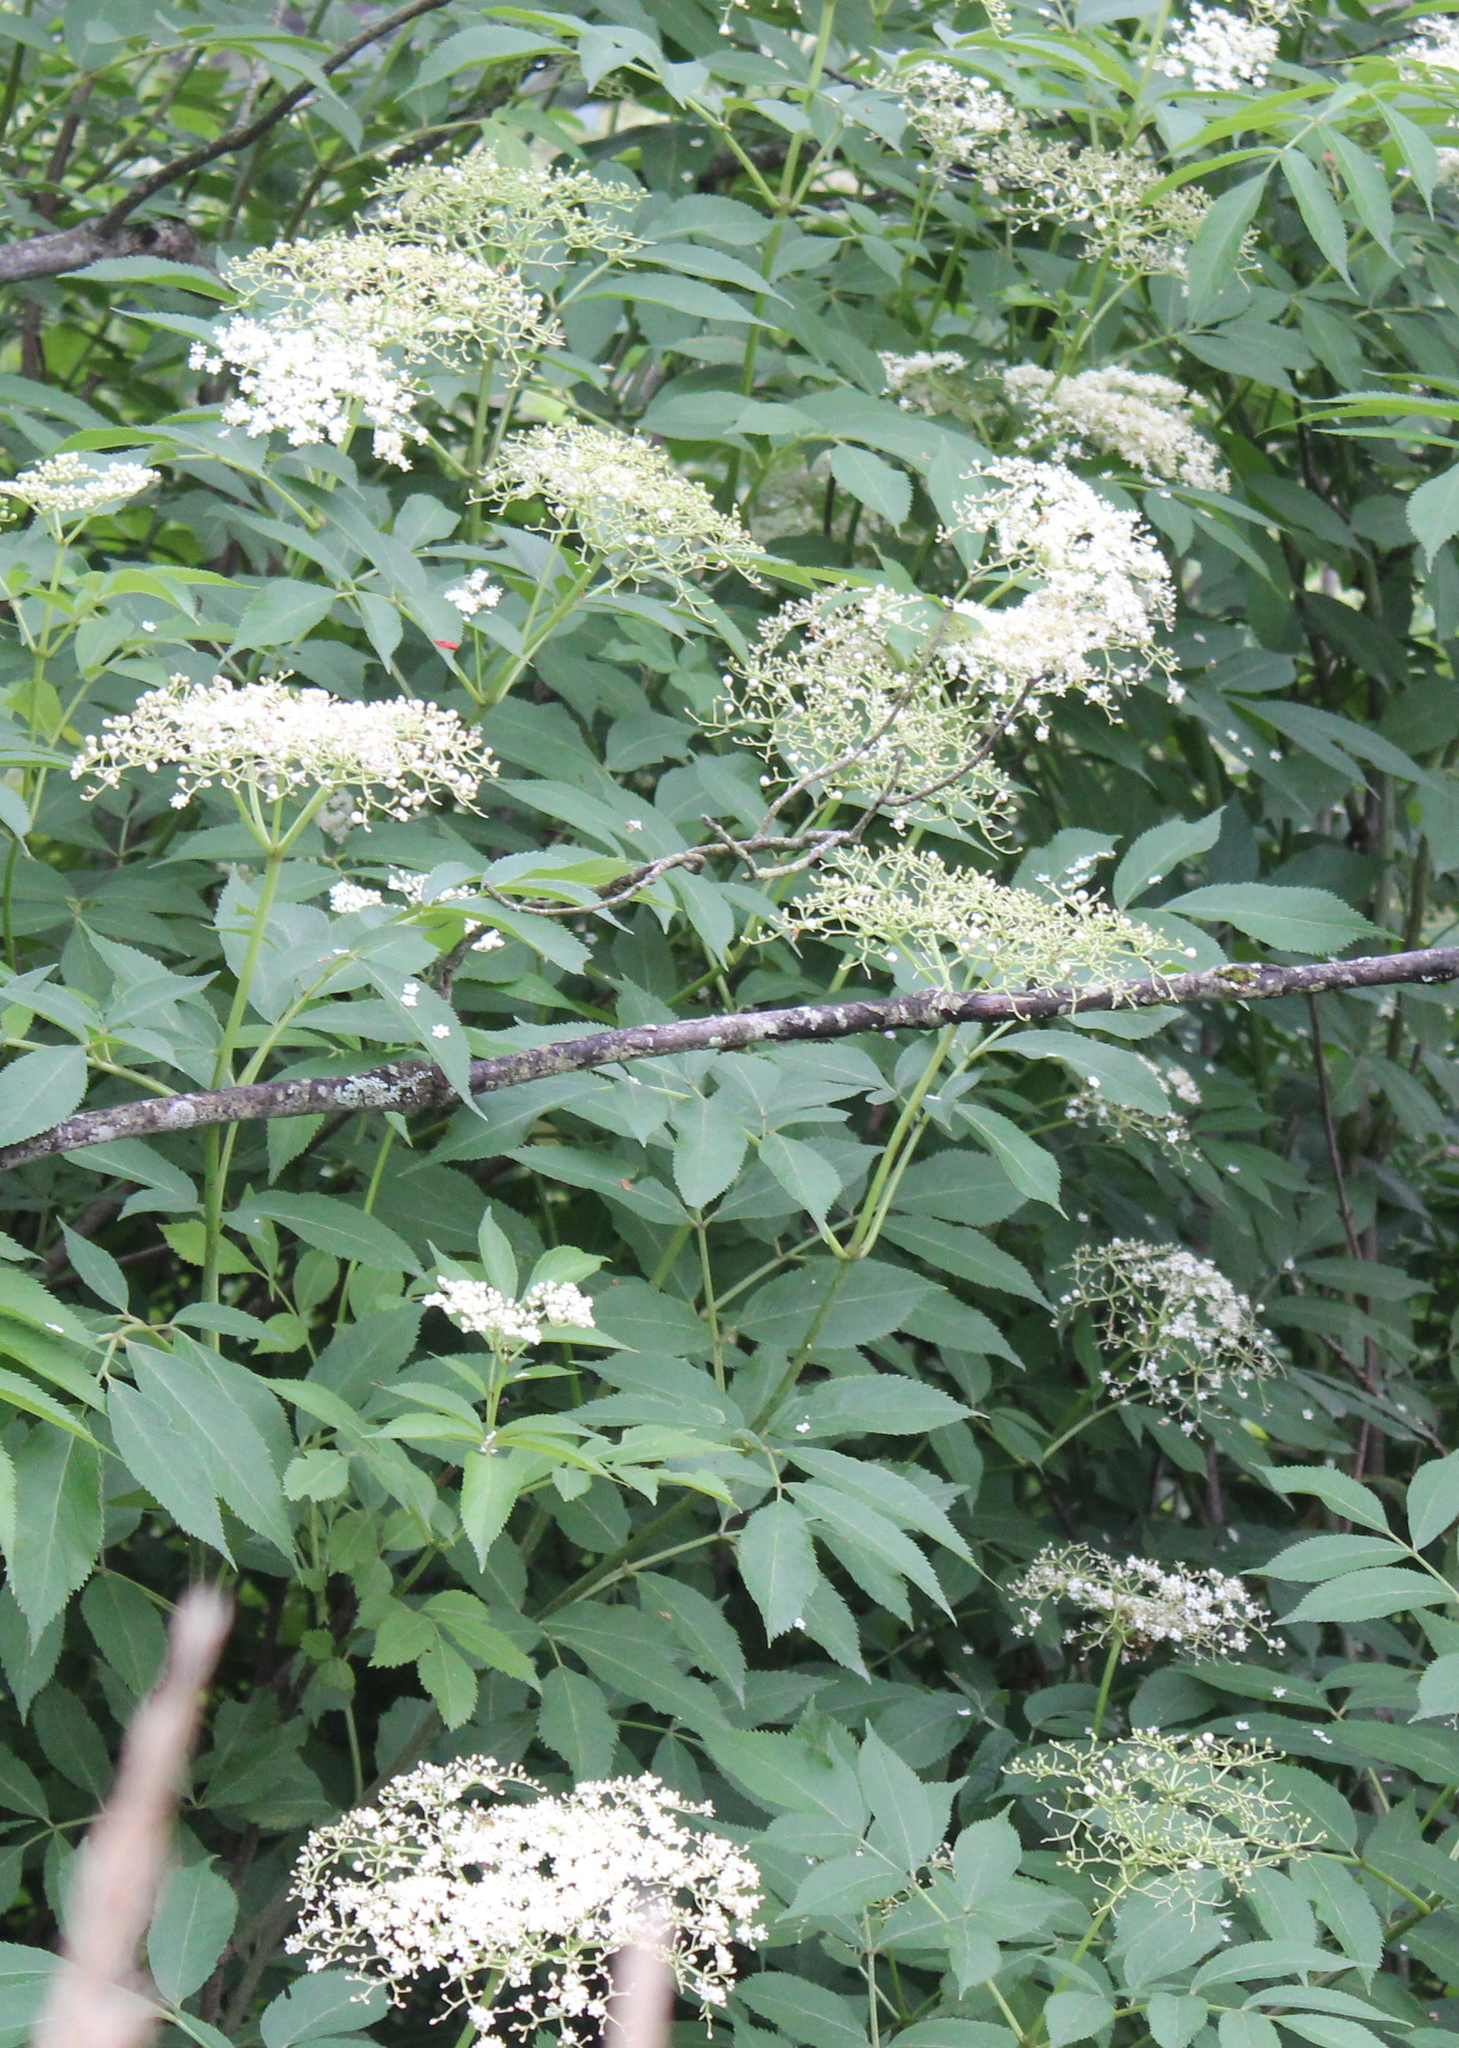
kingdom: Plantae
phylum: Tracheophyta
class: Magnoliopsida
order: Dipsacales
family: Viburnaceae
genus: Sambucus
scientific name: Sambucus canadensis
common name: American elder
